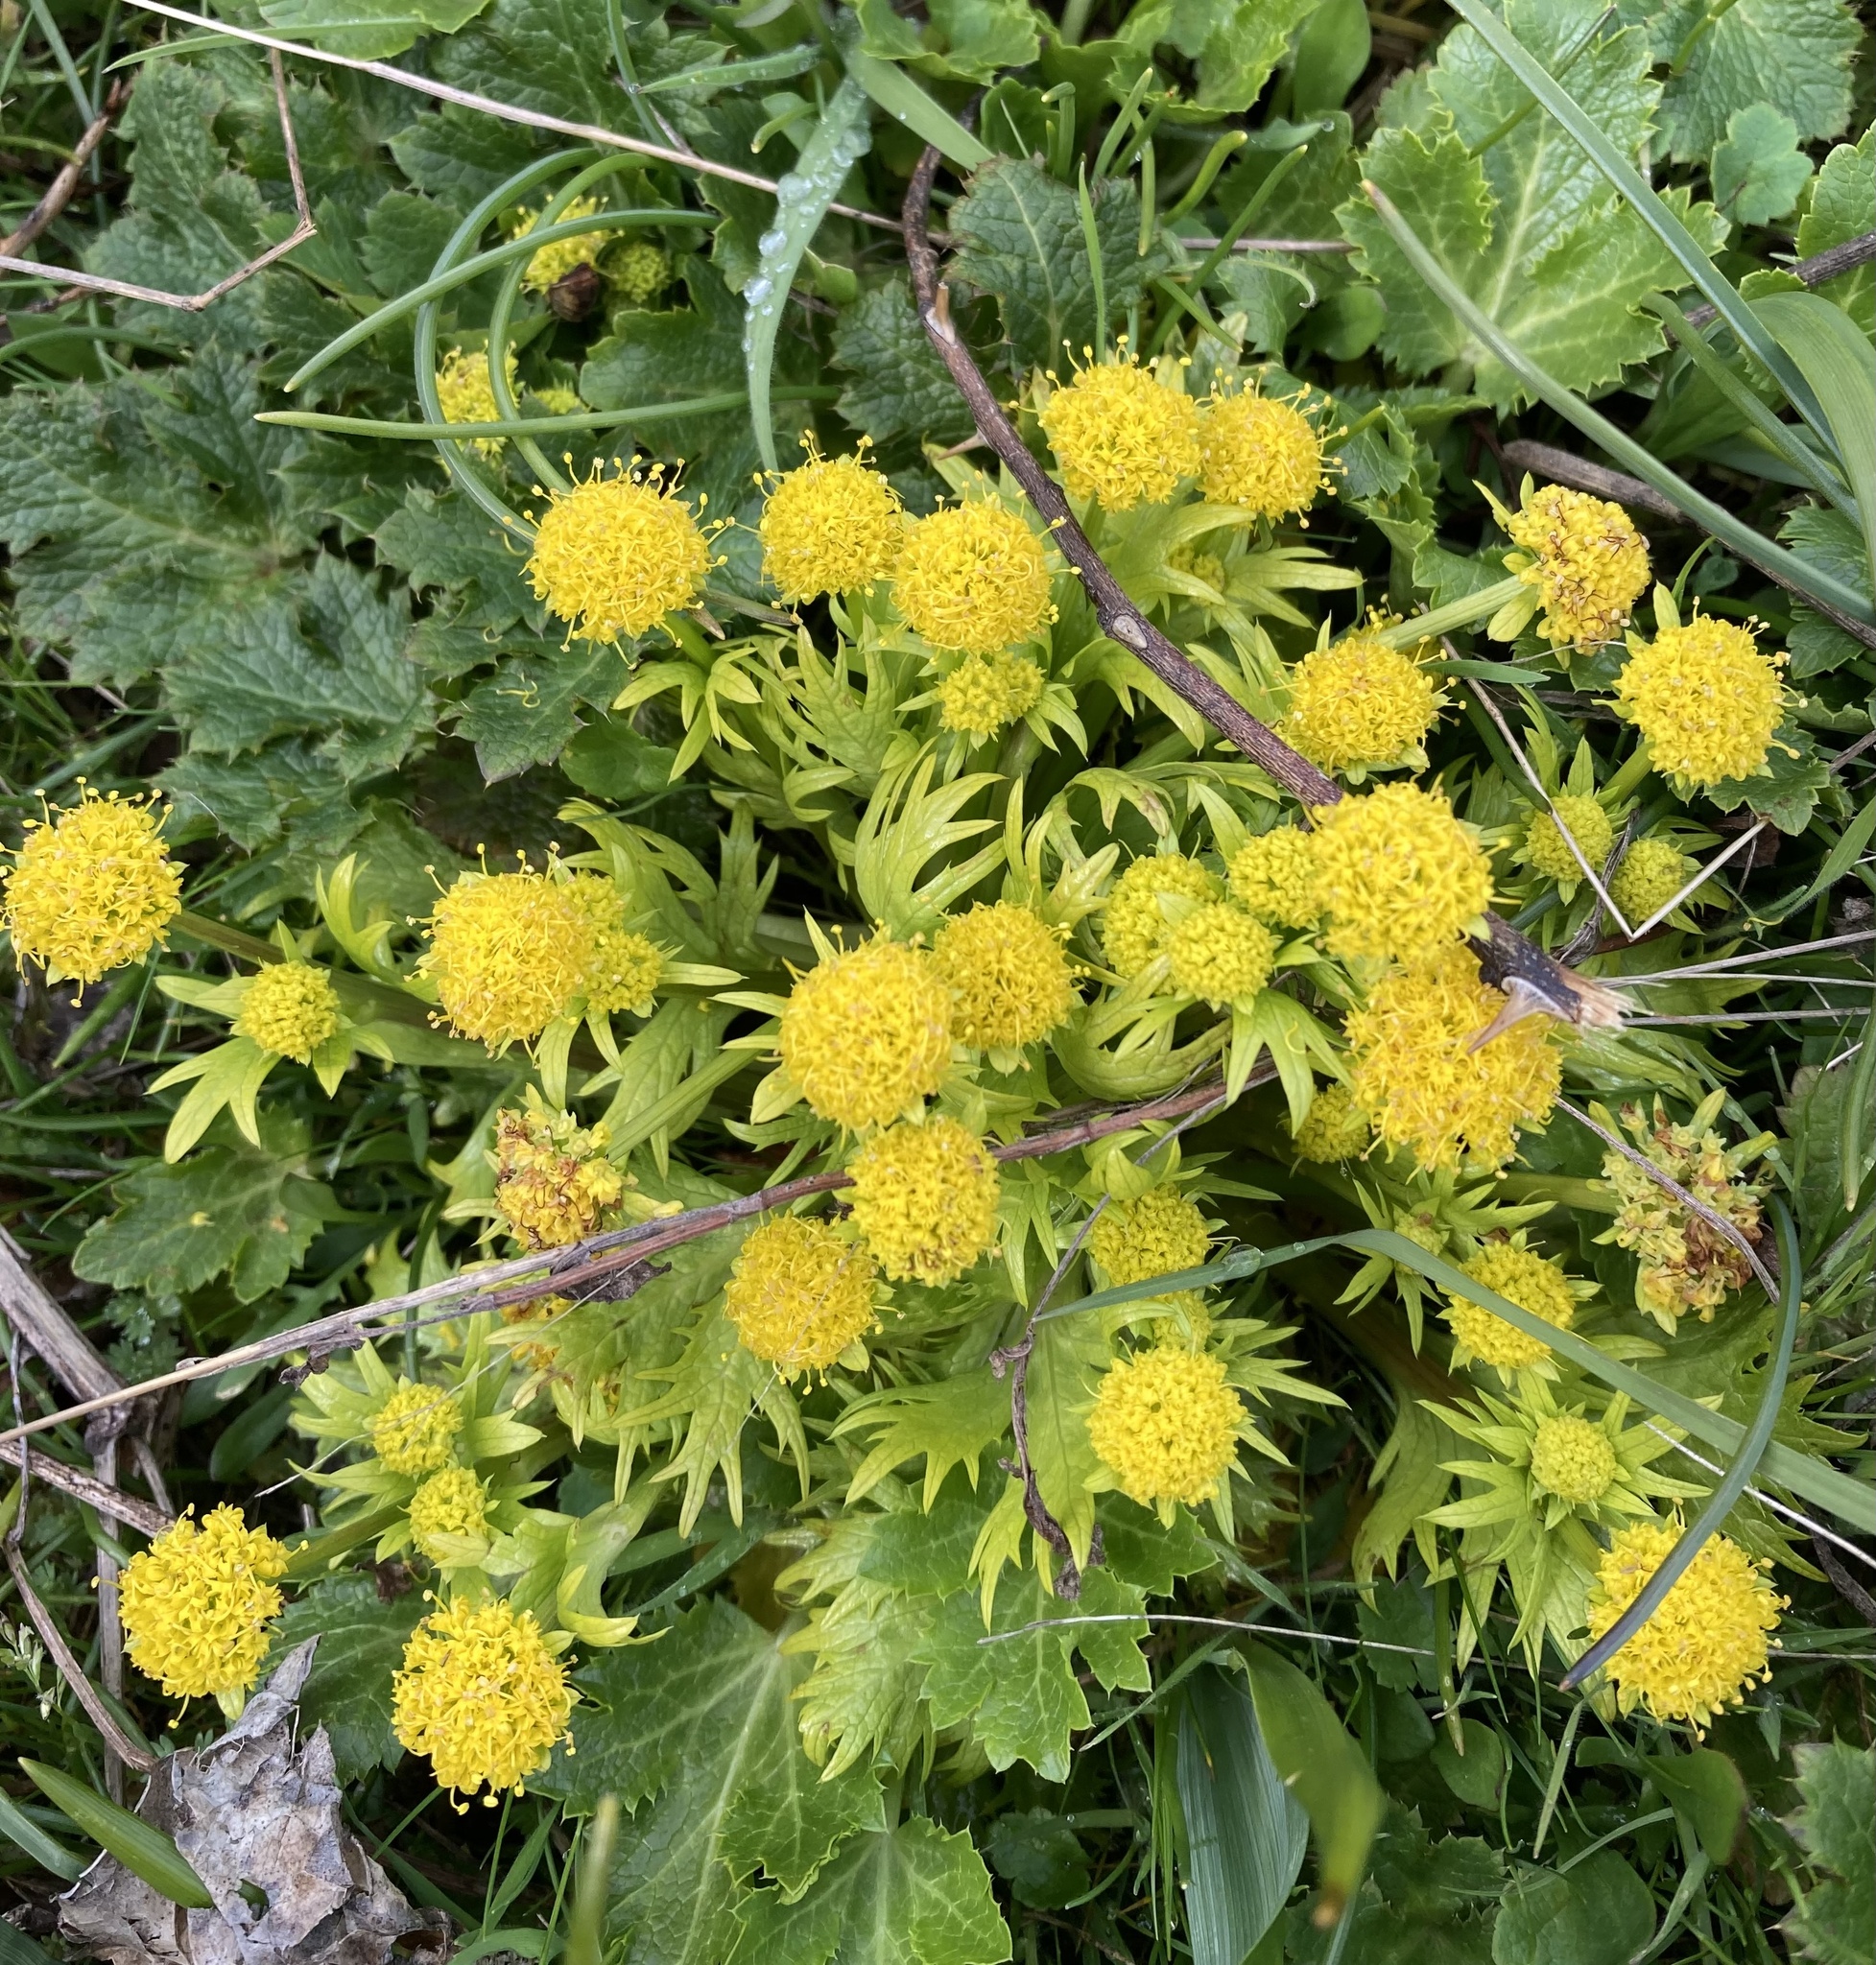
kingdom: Plantae
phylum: Tracheophyta
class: Magnoliopsida
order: Apiales
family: Apiaceae
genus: Sanicula
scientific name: Sanicula arctopoides
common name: Footsteps-of-spring
